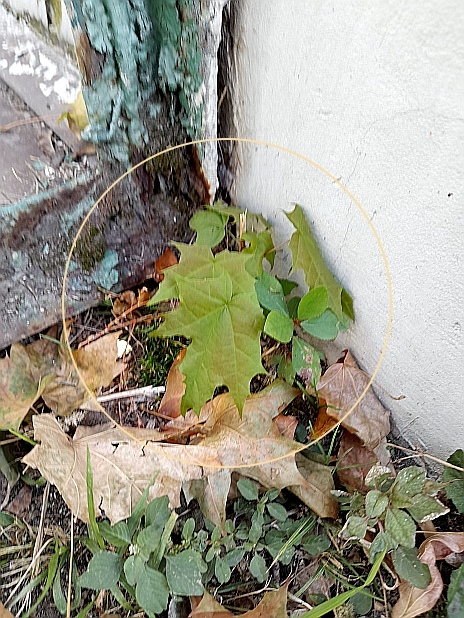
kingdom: Plantae
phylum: Tracheophyta
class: Magnoliopsida
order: Sapindales
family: Sapindaceae
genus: Acer
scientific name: Acer platanoides
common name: Norway maple
